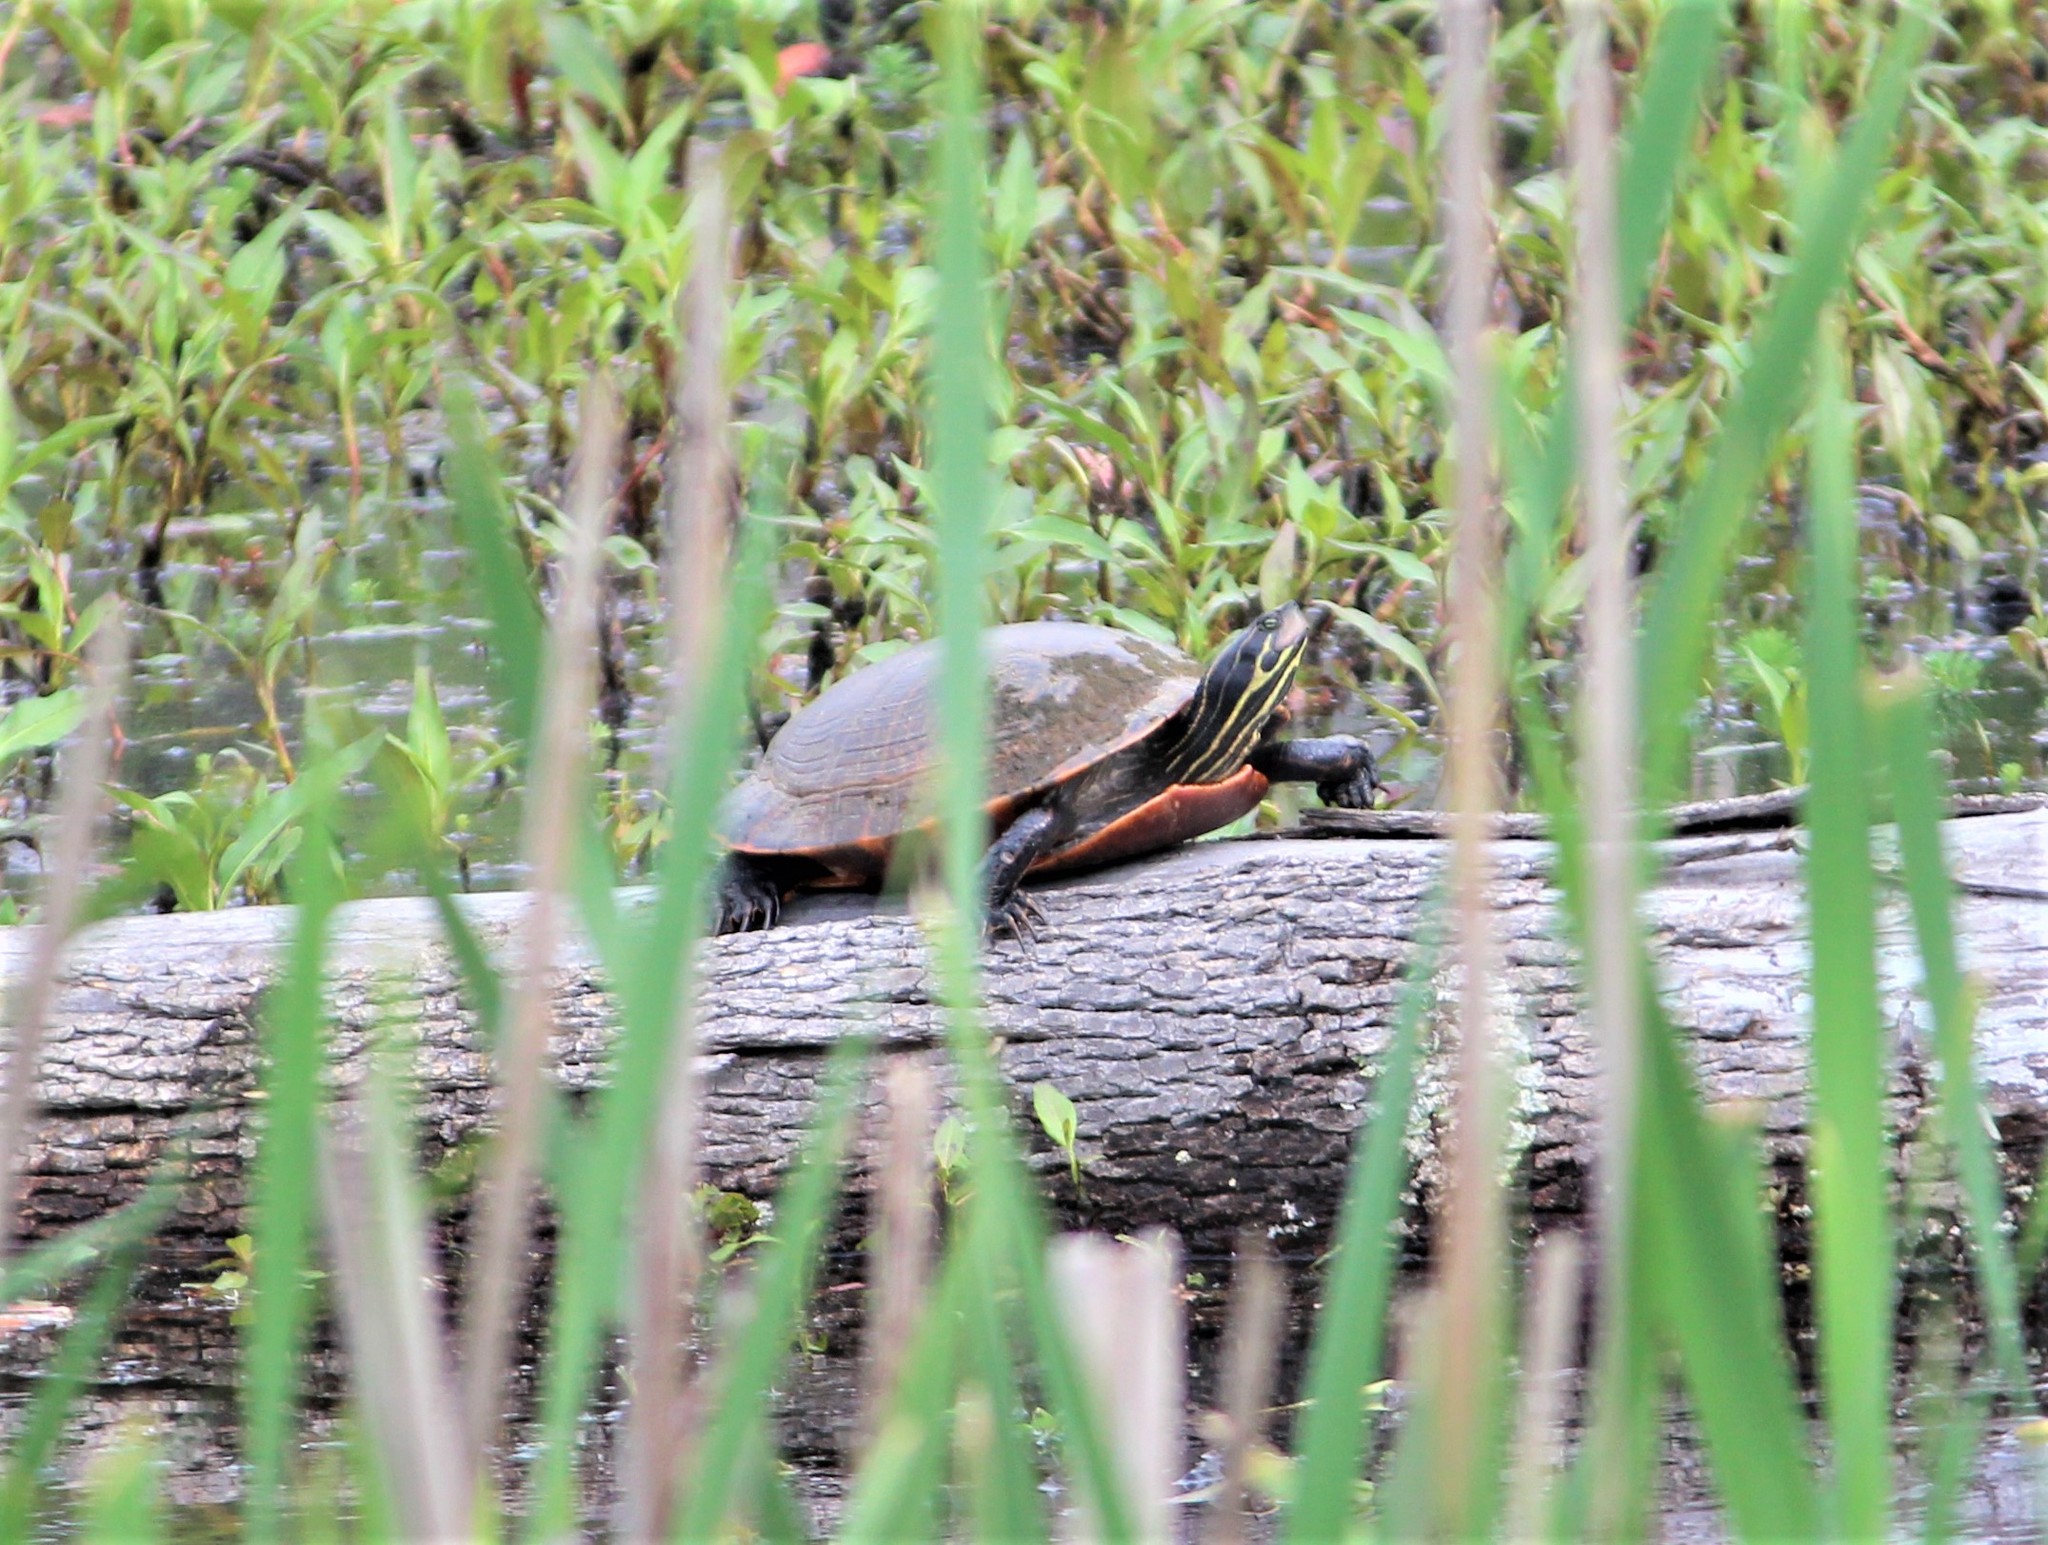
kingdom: Animalia
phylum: Chordata
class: Testudines
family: Emydidae
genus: Pseudemys
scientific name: Pseudemys concinna
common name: Eastern river cooter
